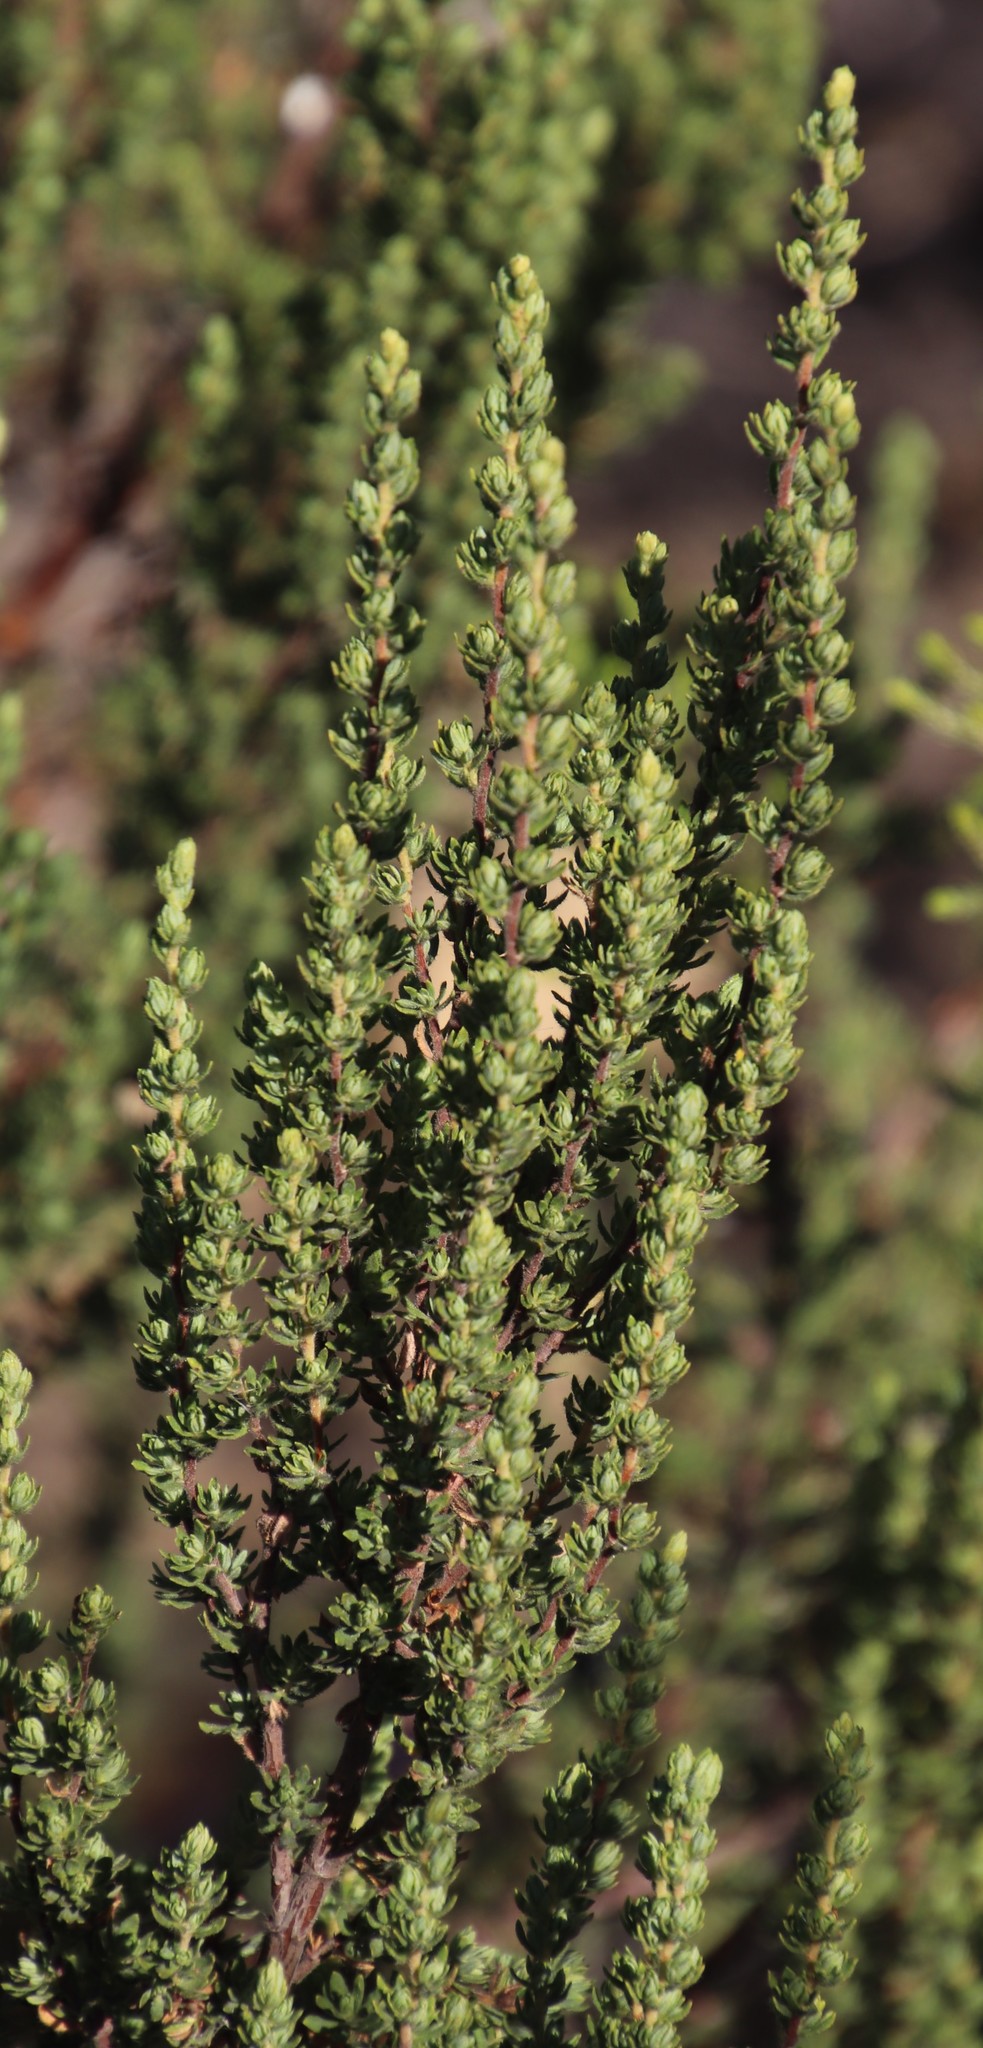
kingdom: Plantae
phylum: Tracheophyta
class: Magnoliopsida
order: Gentianales
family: Rubiaceae
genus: Anthospermum
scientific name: Anthospermum spathulatum
